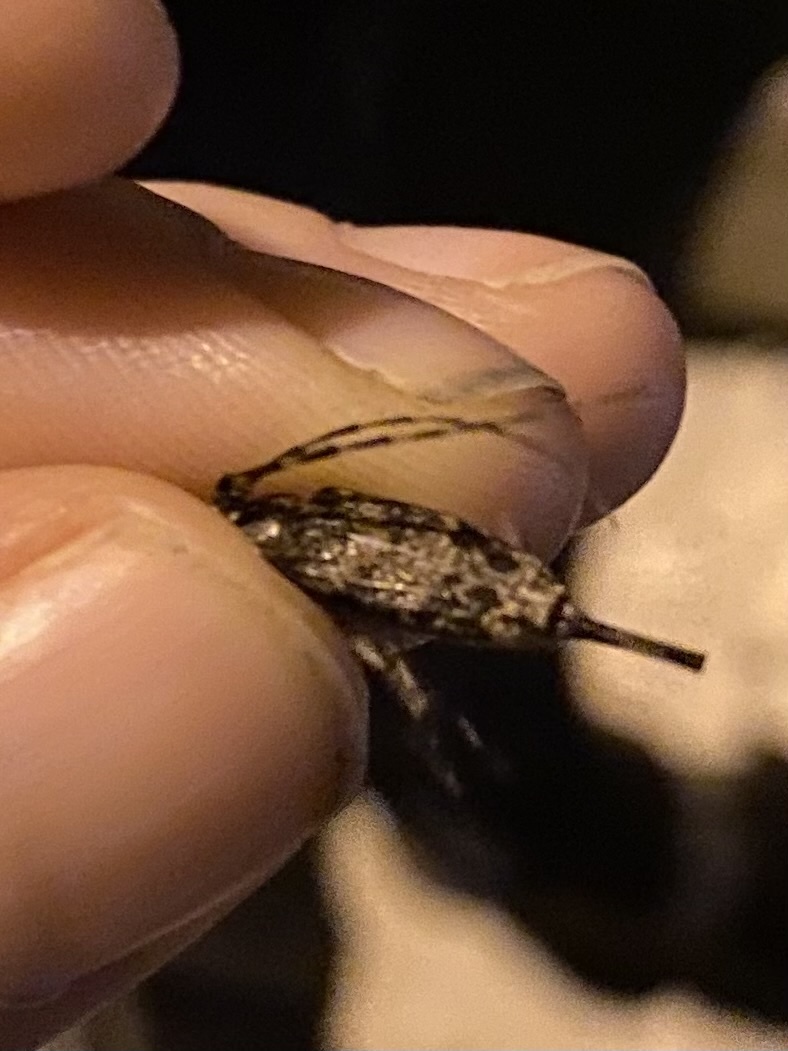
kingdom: Animalia
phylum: Arthropoda
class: Insecta
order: Coleoptera
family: Cerambycidae
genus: Graphisurus
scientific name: Graphisurus fasciatus
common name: Banded graphisurus
